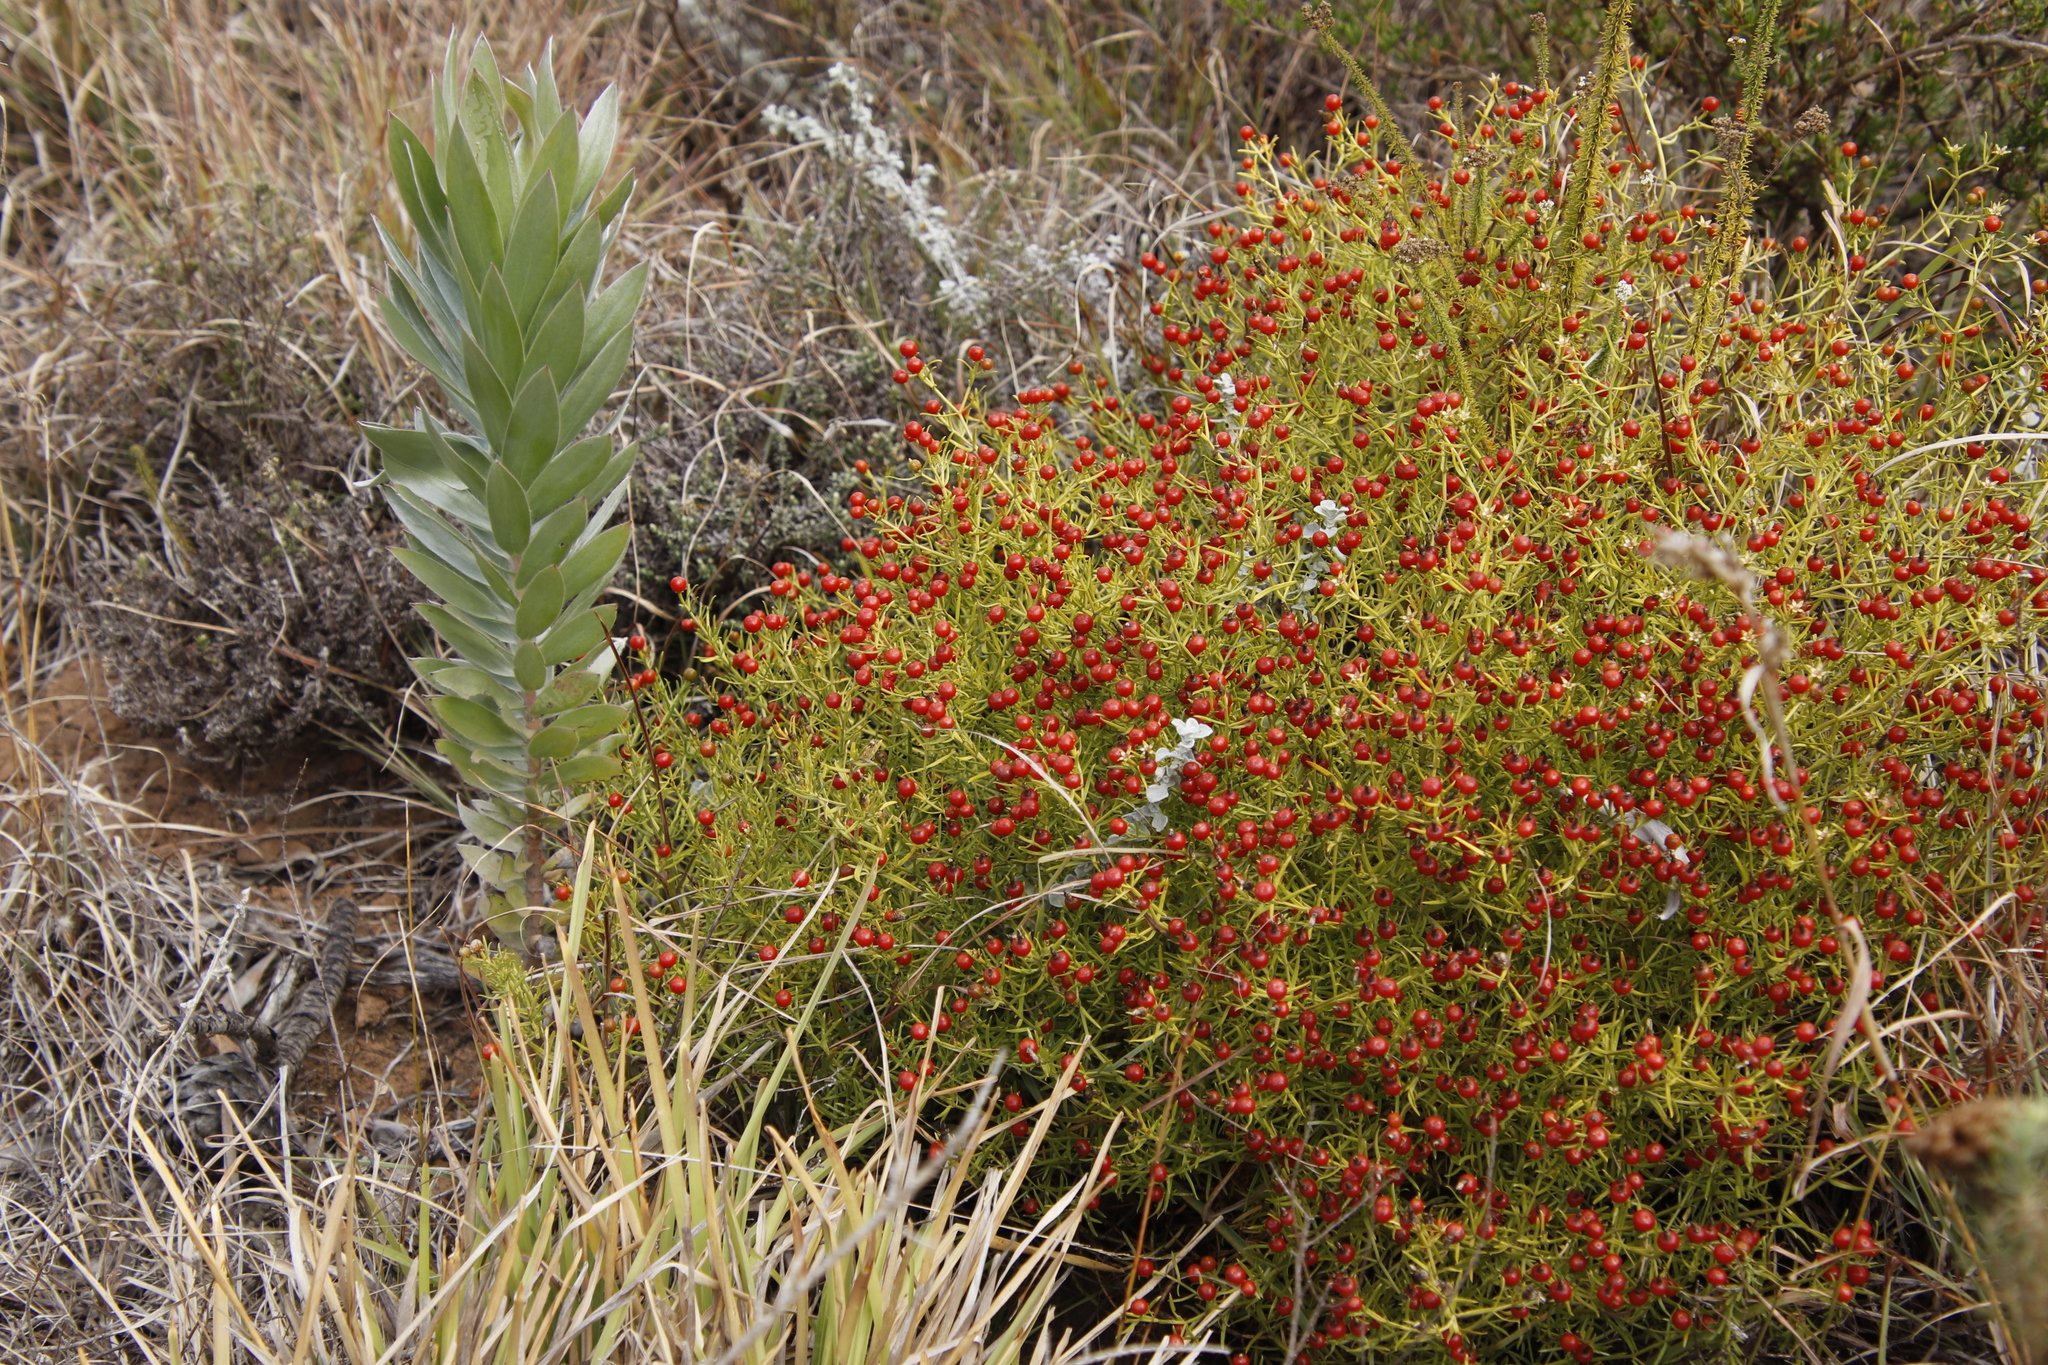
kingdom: Plantae
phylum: Tracheophyta
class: Magnoliopsida
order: Gentianales
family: Gentianaceae
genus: Chironia
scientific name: Chironia baccifera
